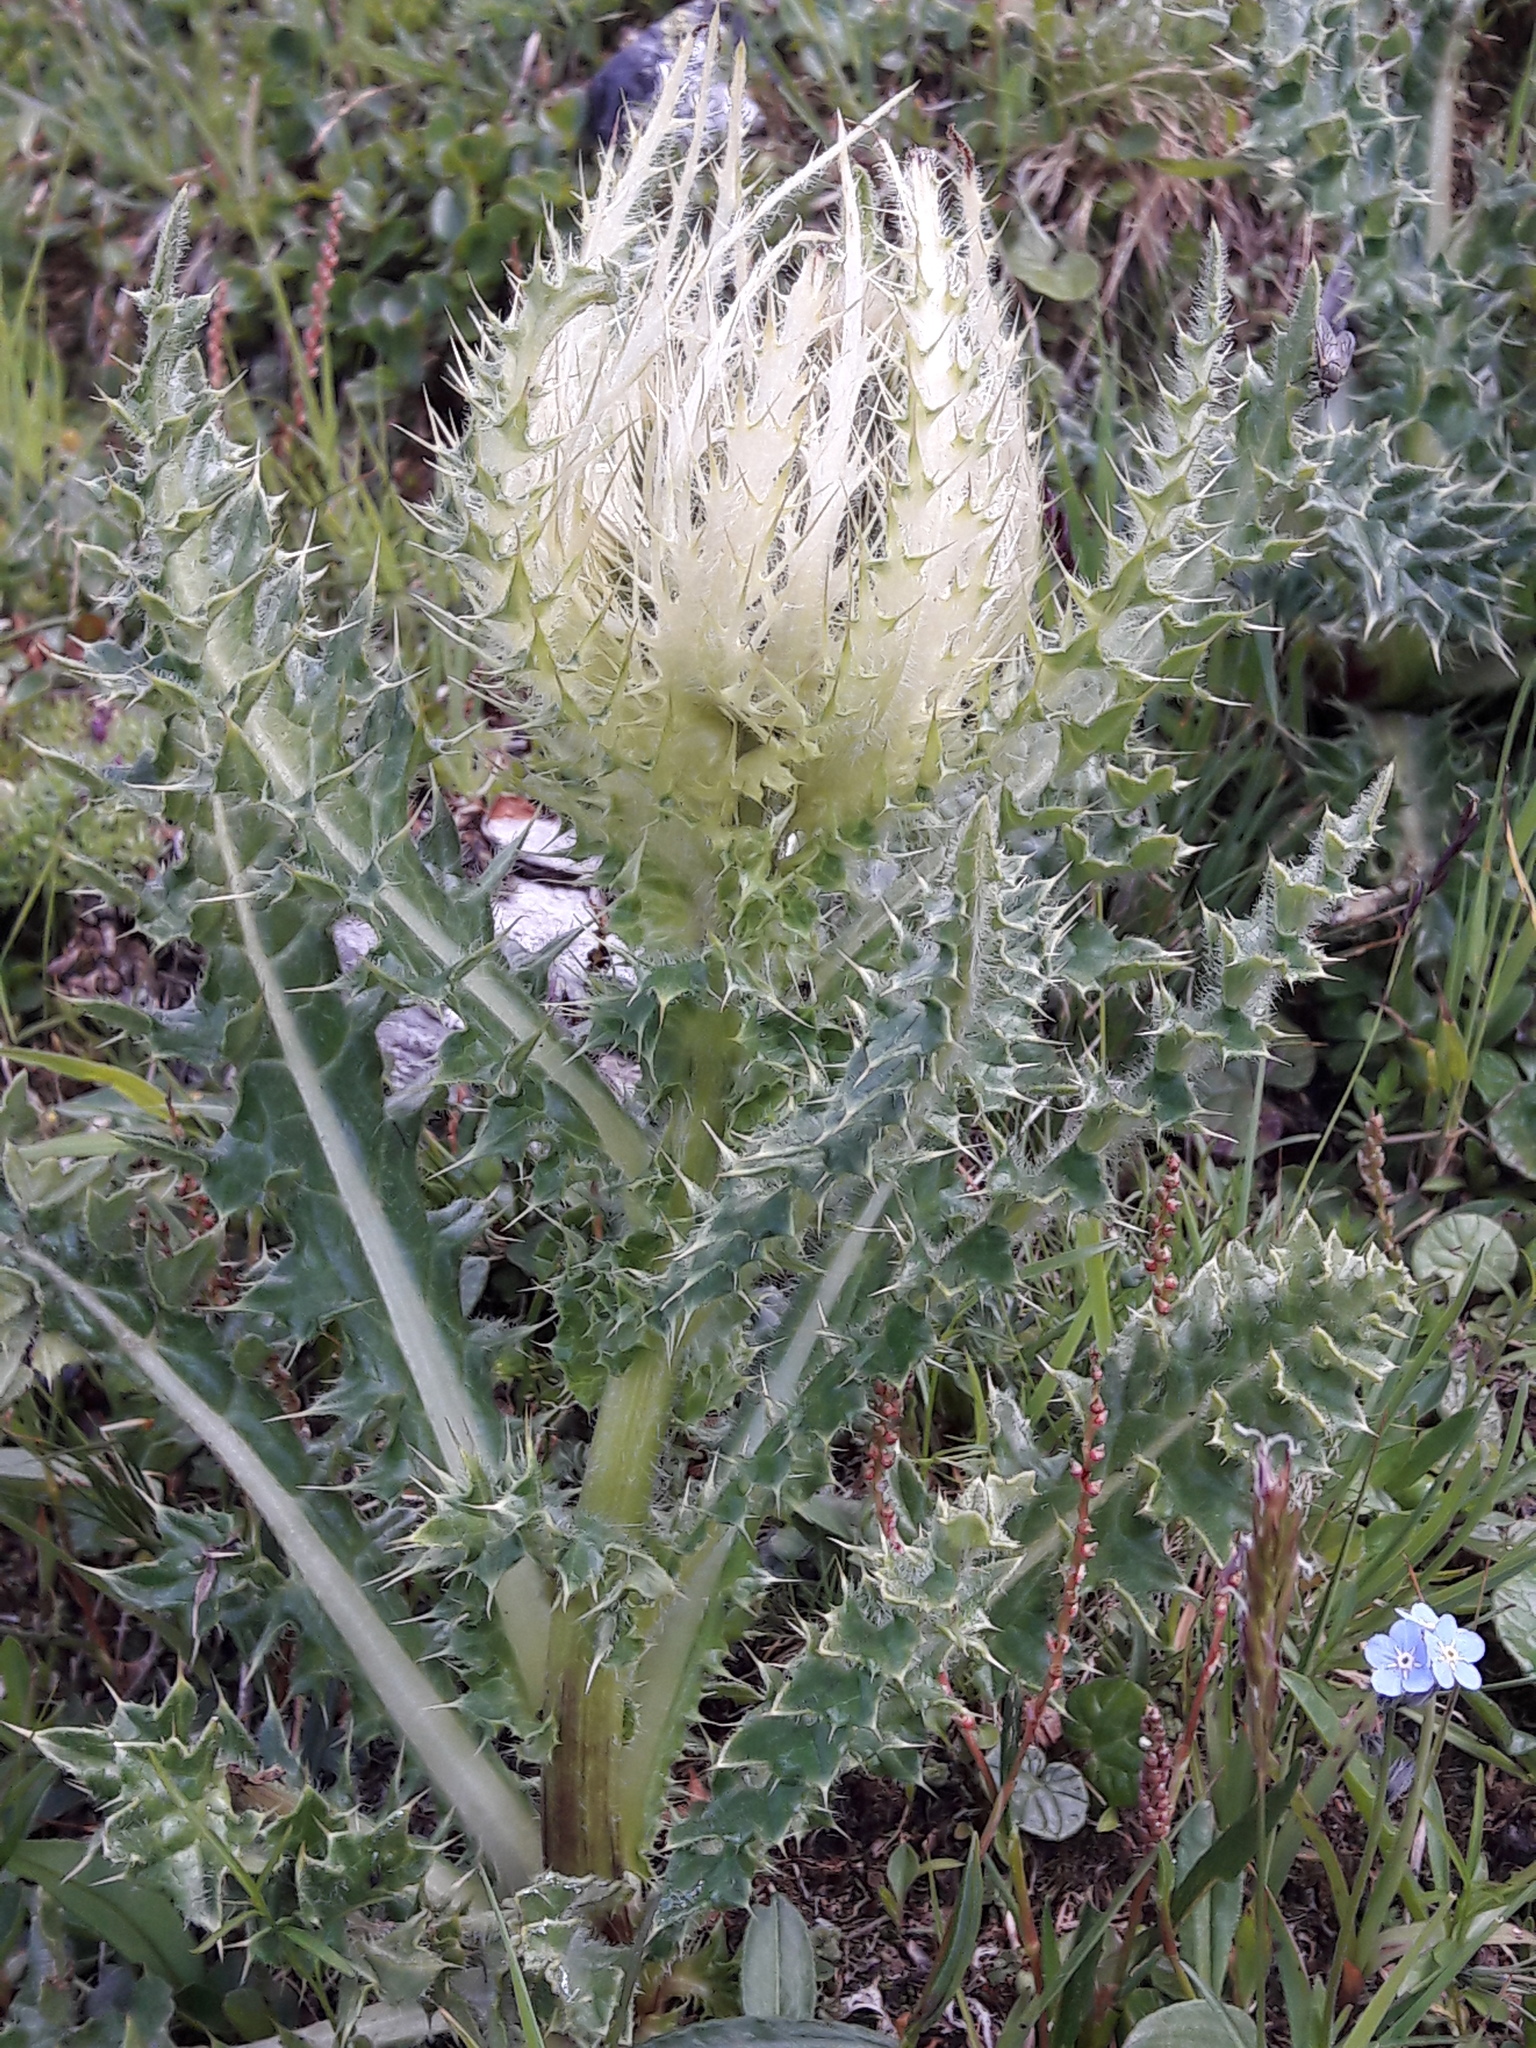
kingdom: Plantae
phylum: Tracheophyta
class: Magnoliopsida
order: Asterales
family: Asteraceae
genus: Cirsium
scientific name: Cirsium spinosissimum
